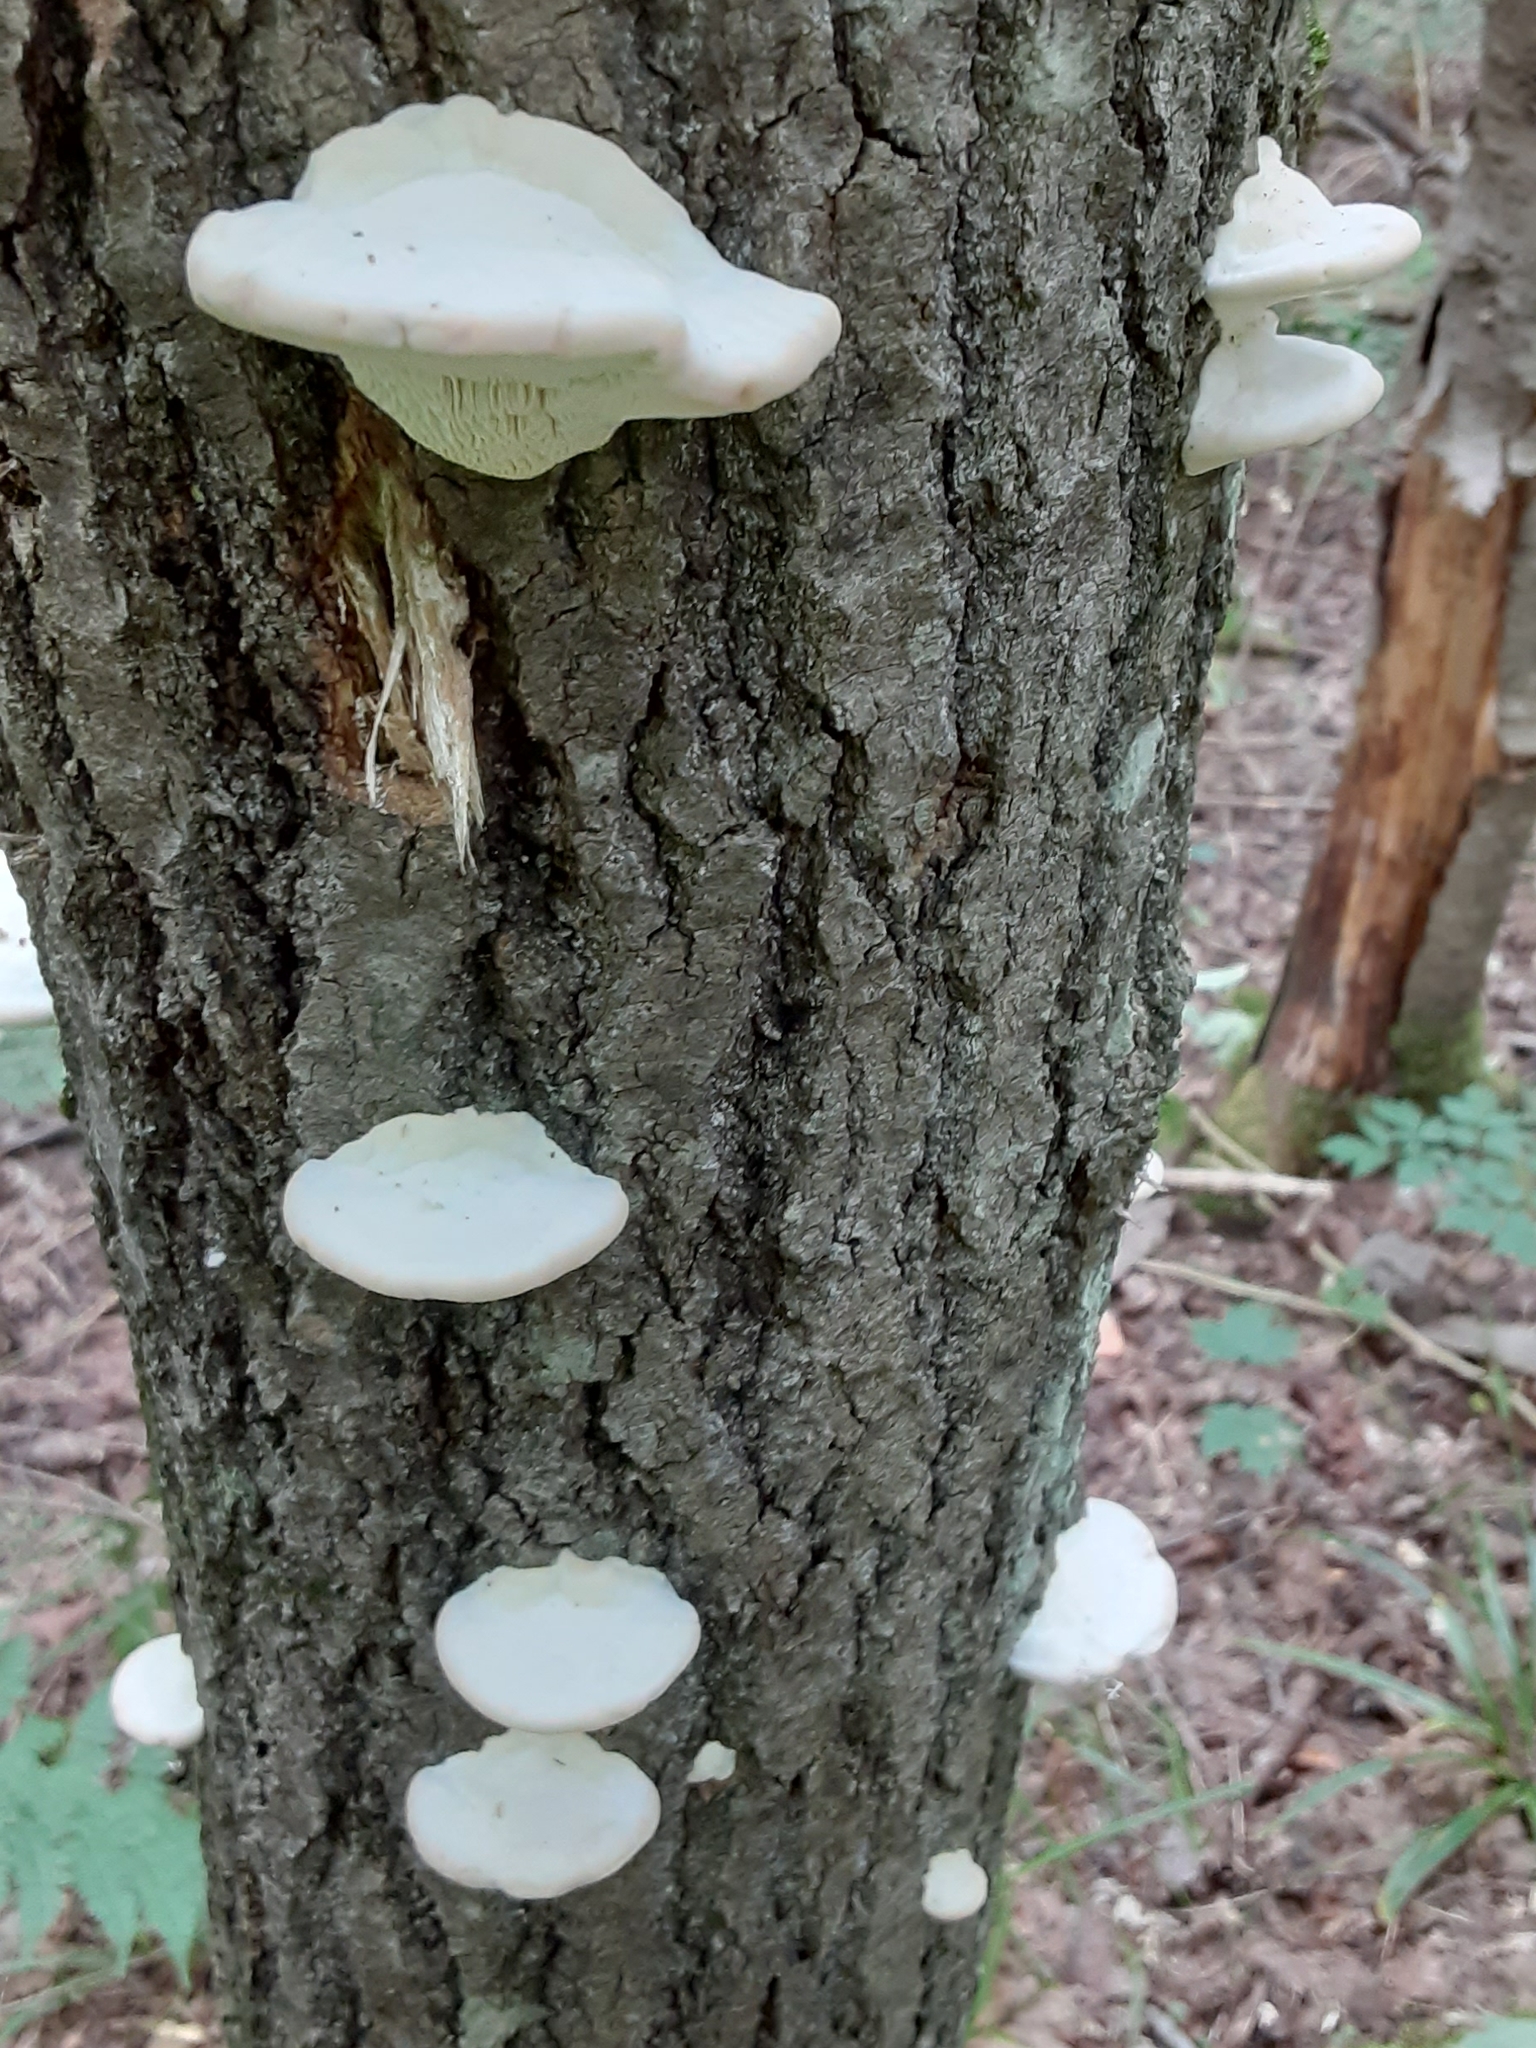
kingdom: Fungi
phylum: Basidiomycota
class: Agaricomycetes
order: Polyporales
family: Polyporaceae
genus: Trametes
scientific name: Trametes gibbosa
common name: Lumpy bracket
